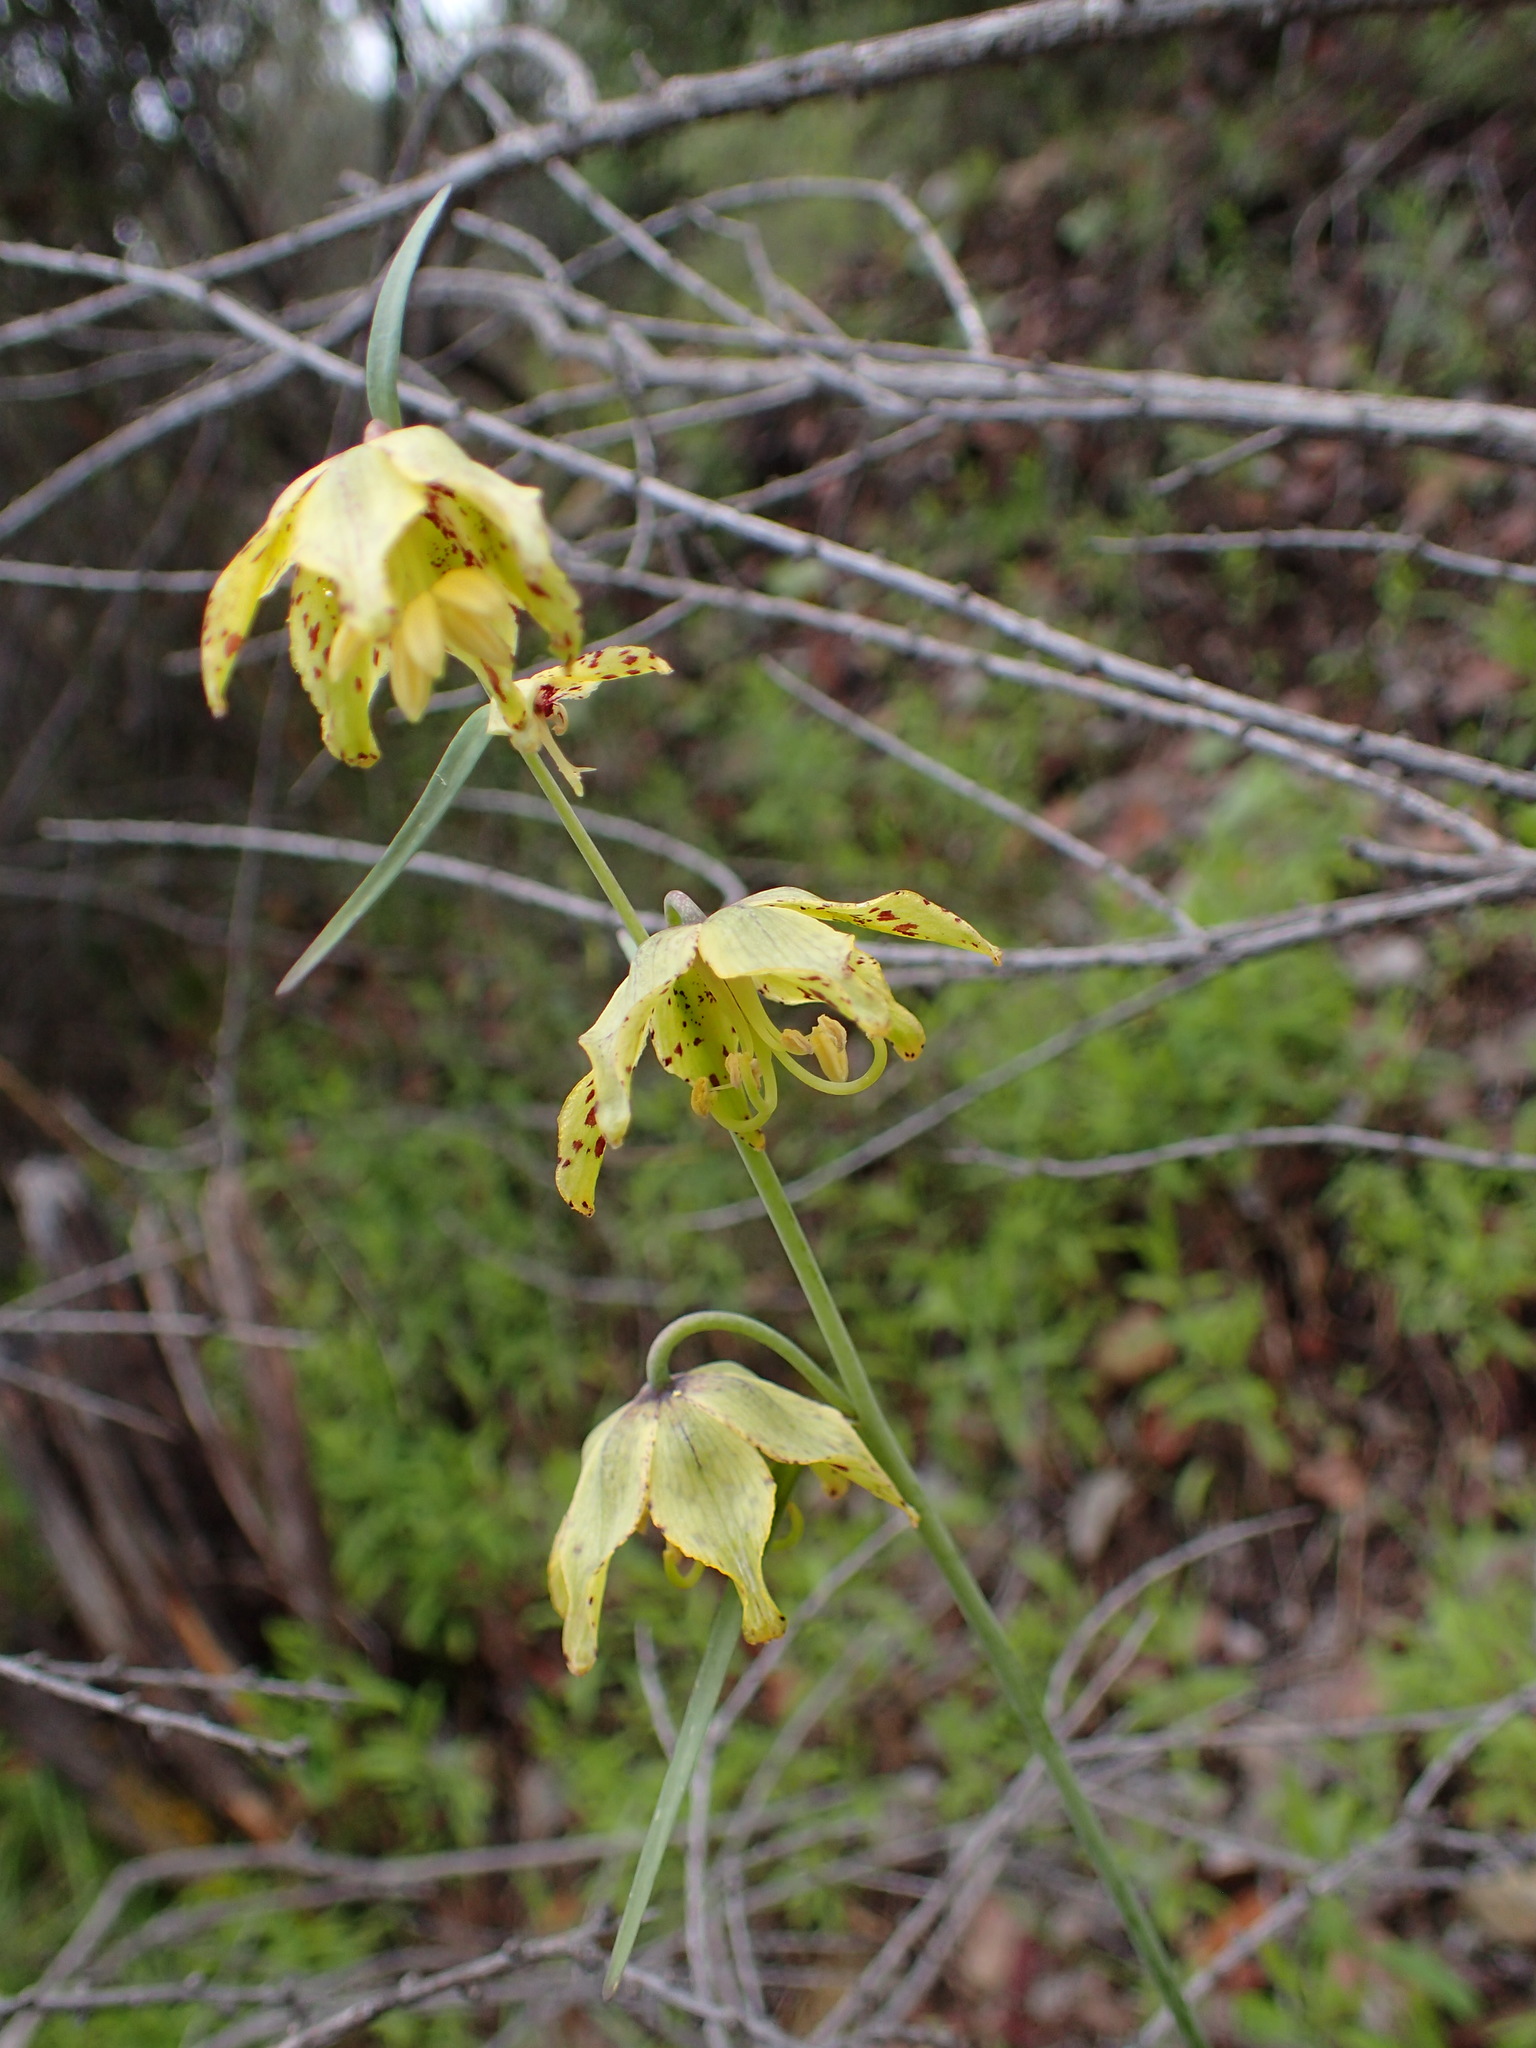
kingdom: Plantae
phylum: Tracheophyta
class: Liliopsida
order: Liliales
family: Liliaceae
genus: Fritillaria
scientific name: Fritillaria ojaiensis
